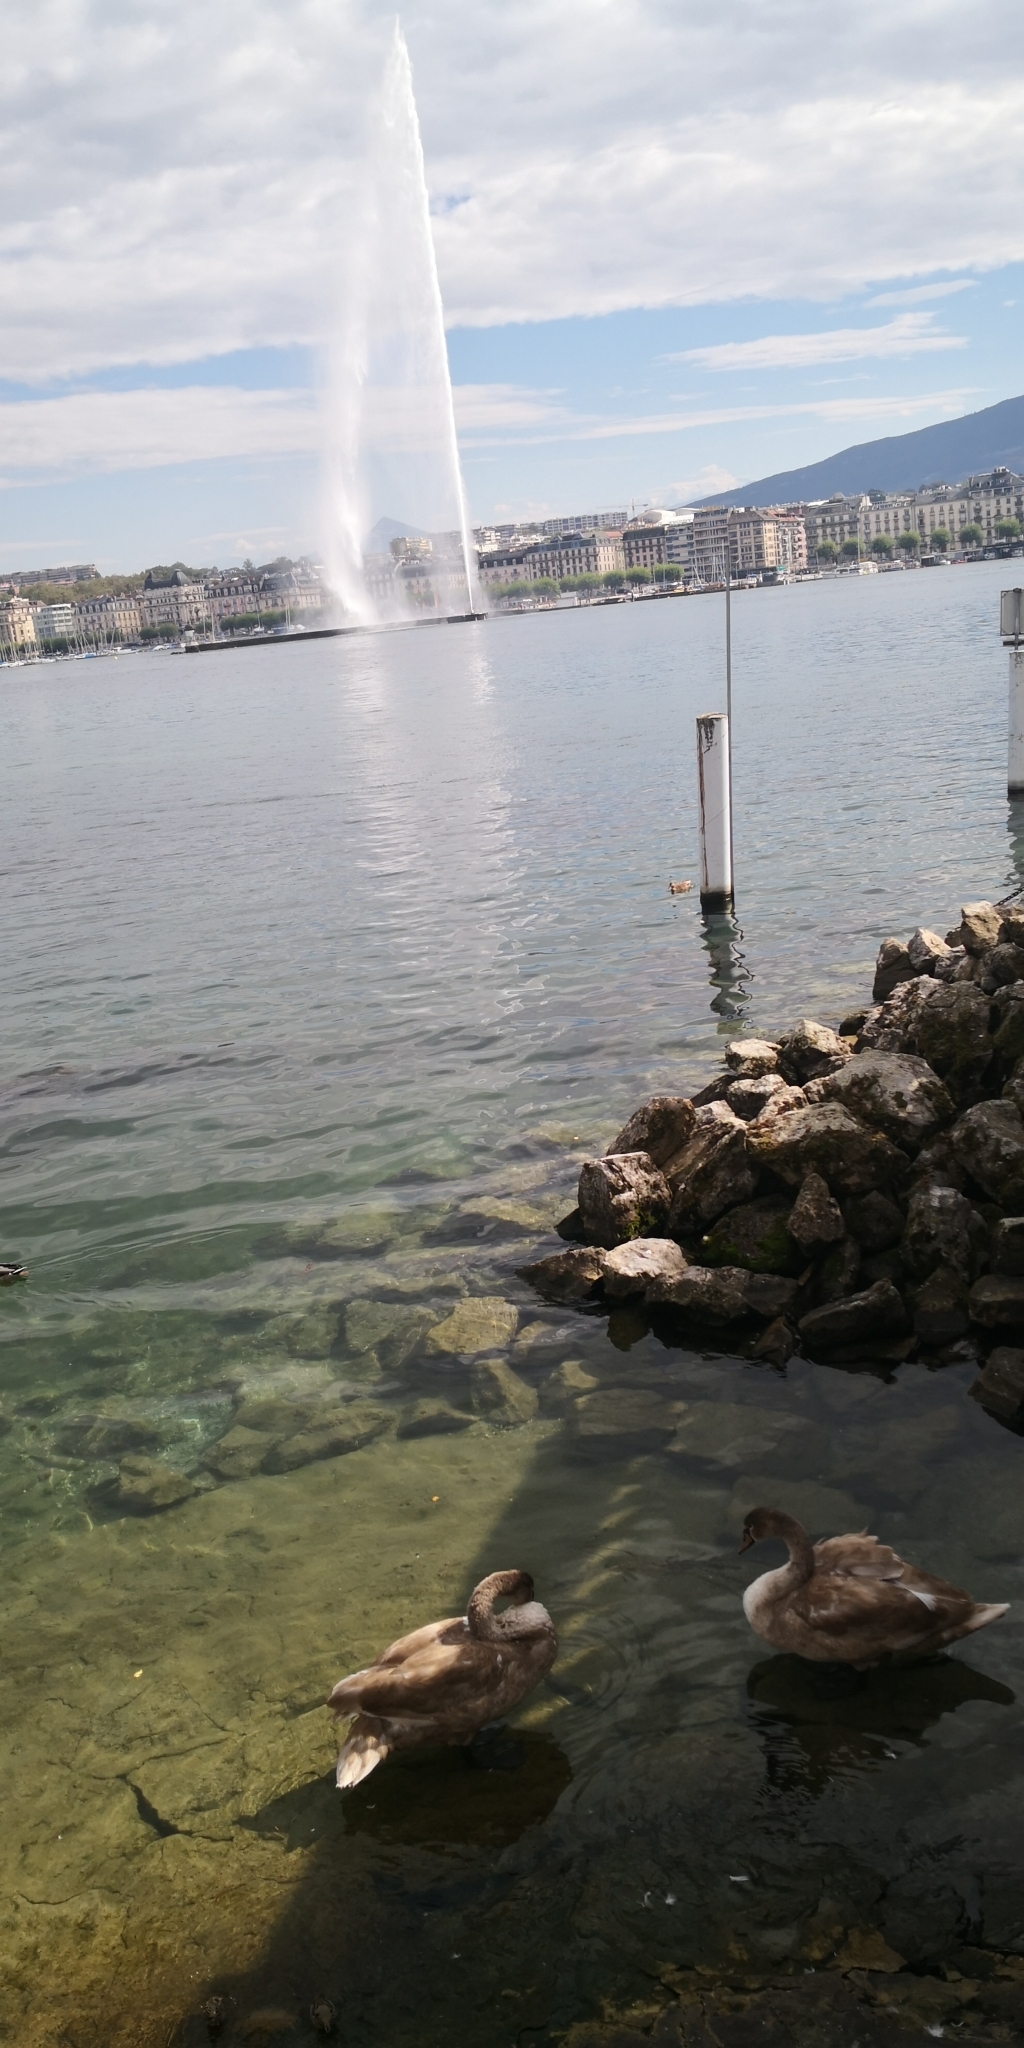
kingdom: Animalia
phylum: Chordata
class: Aves
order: Anseriformes
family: Anatidae
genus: Cygnus
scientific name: Cygnus olor
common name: Mute swan
